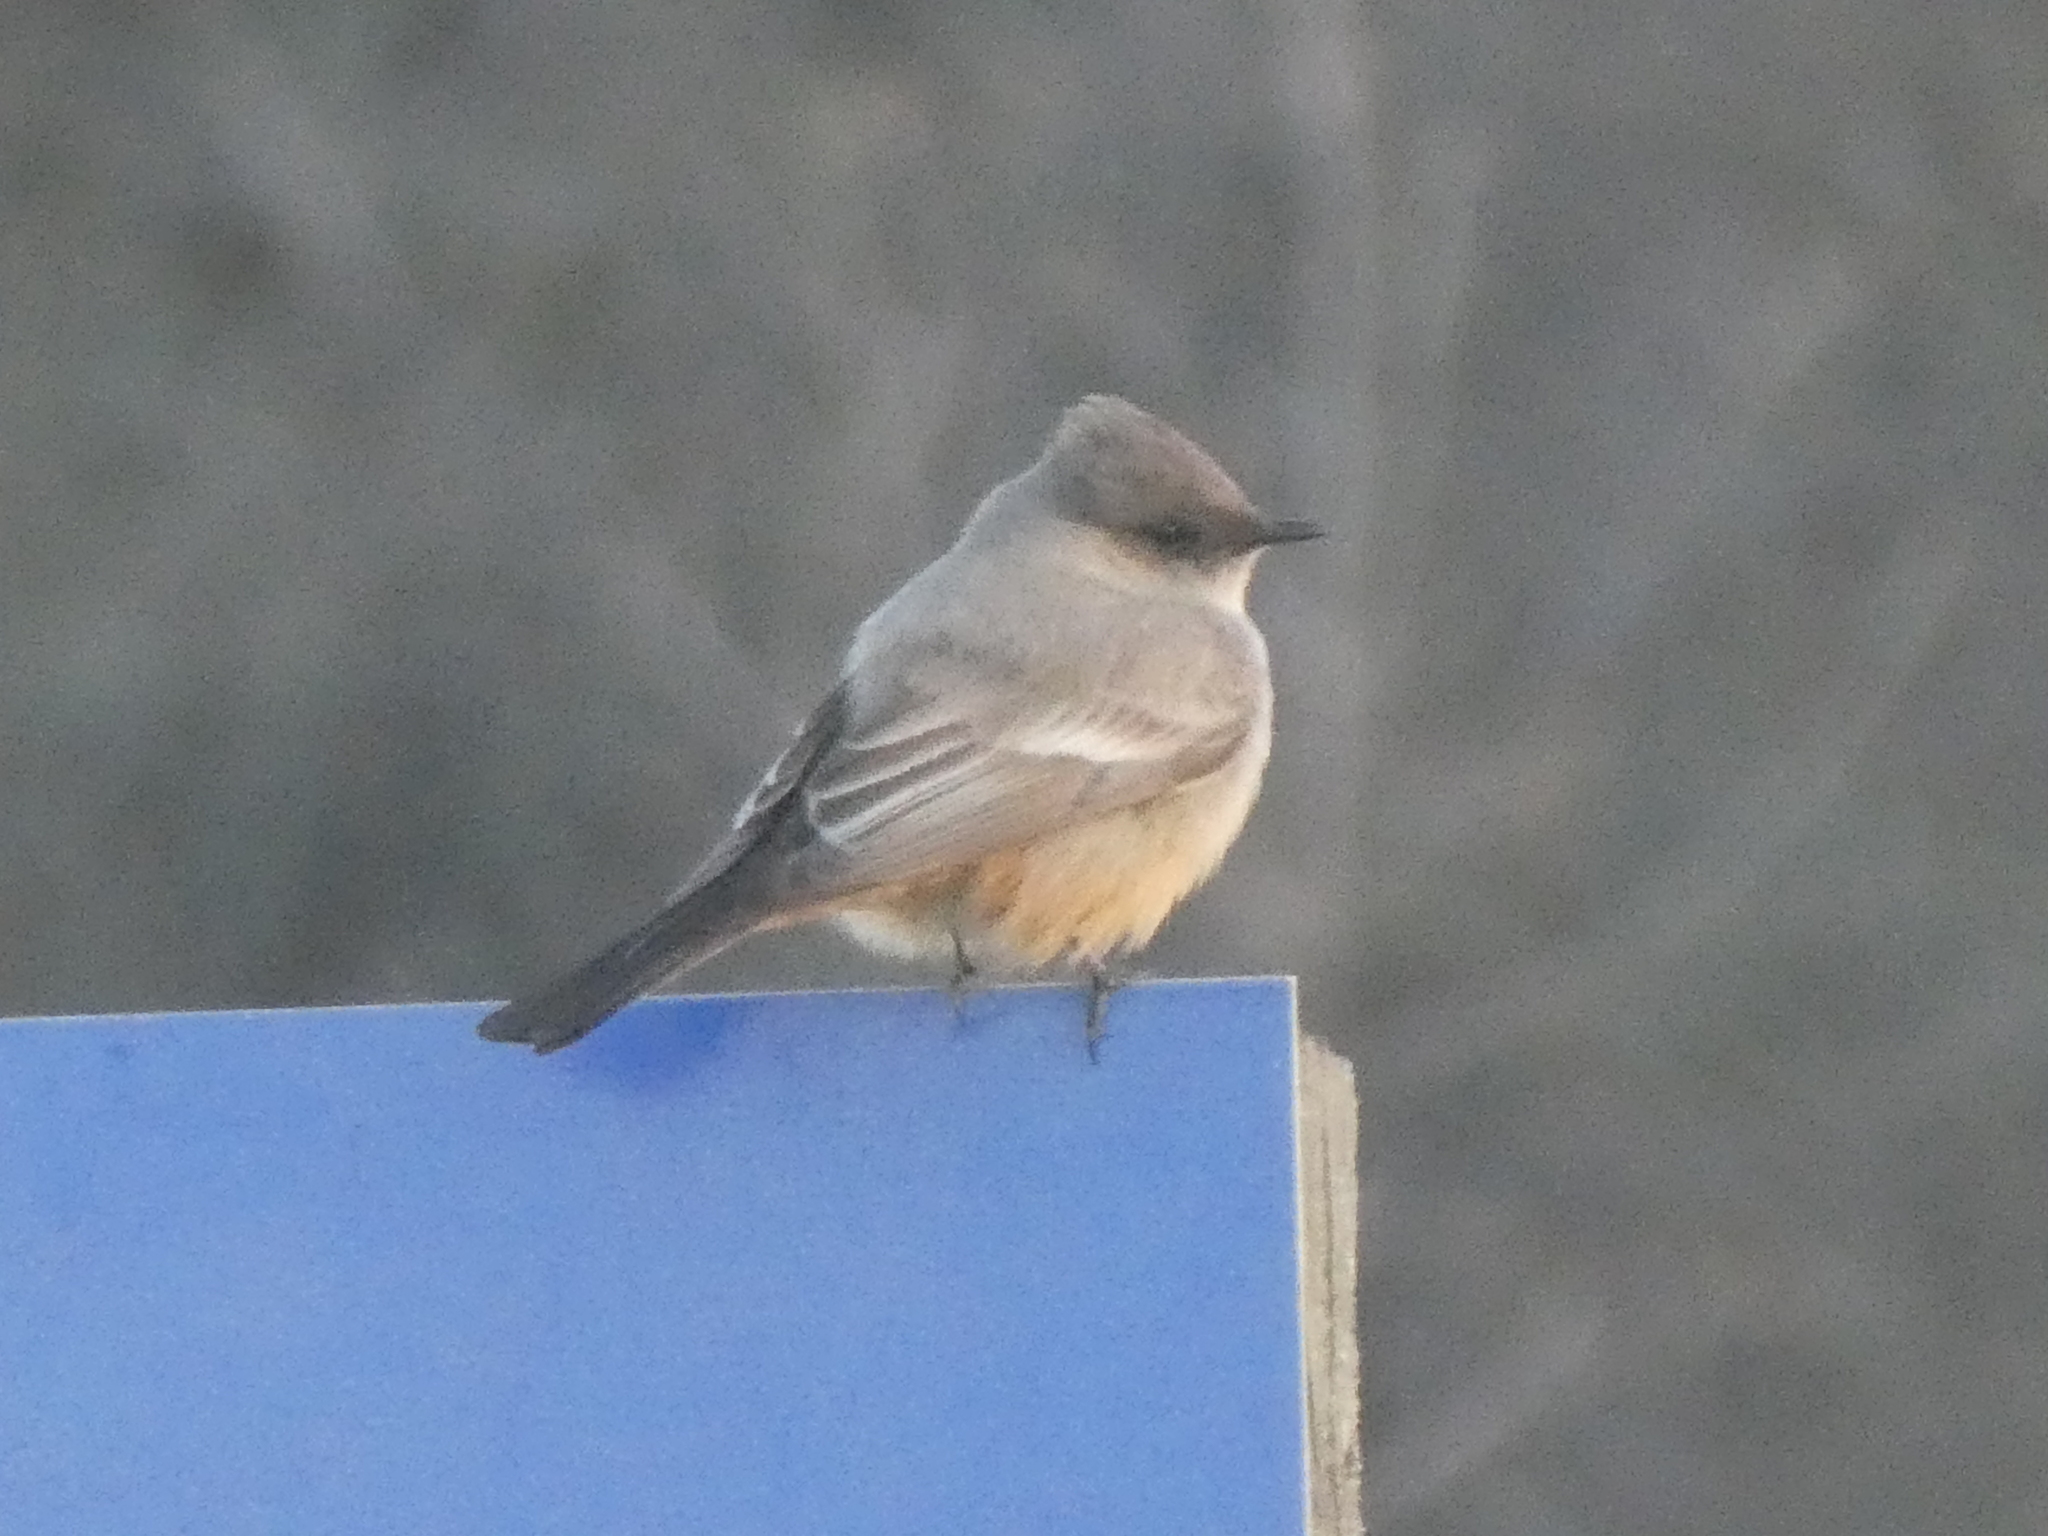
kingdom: Animalia
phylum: Chordata
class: Aves
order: Passeriformes
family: Tyrannidae
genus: Sayornis
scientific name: Sayornis saya
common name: Say's phoebe
